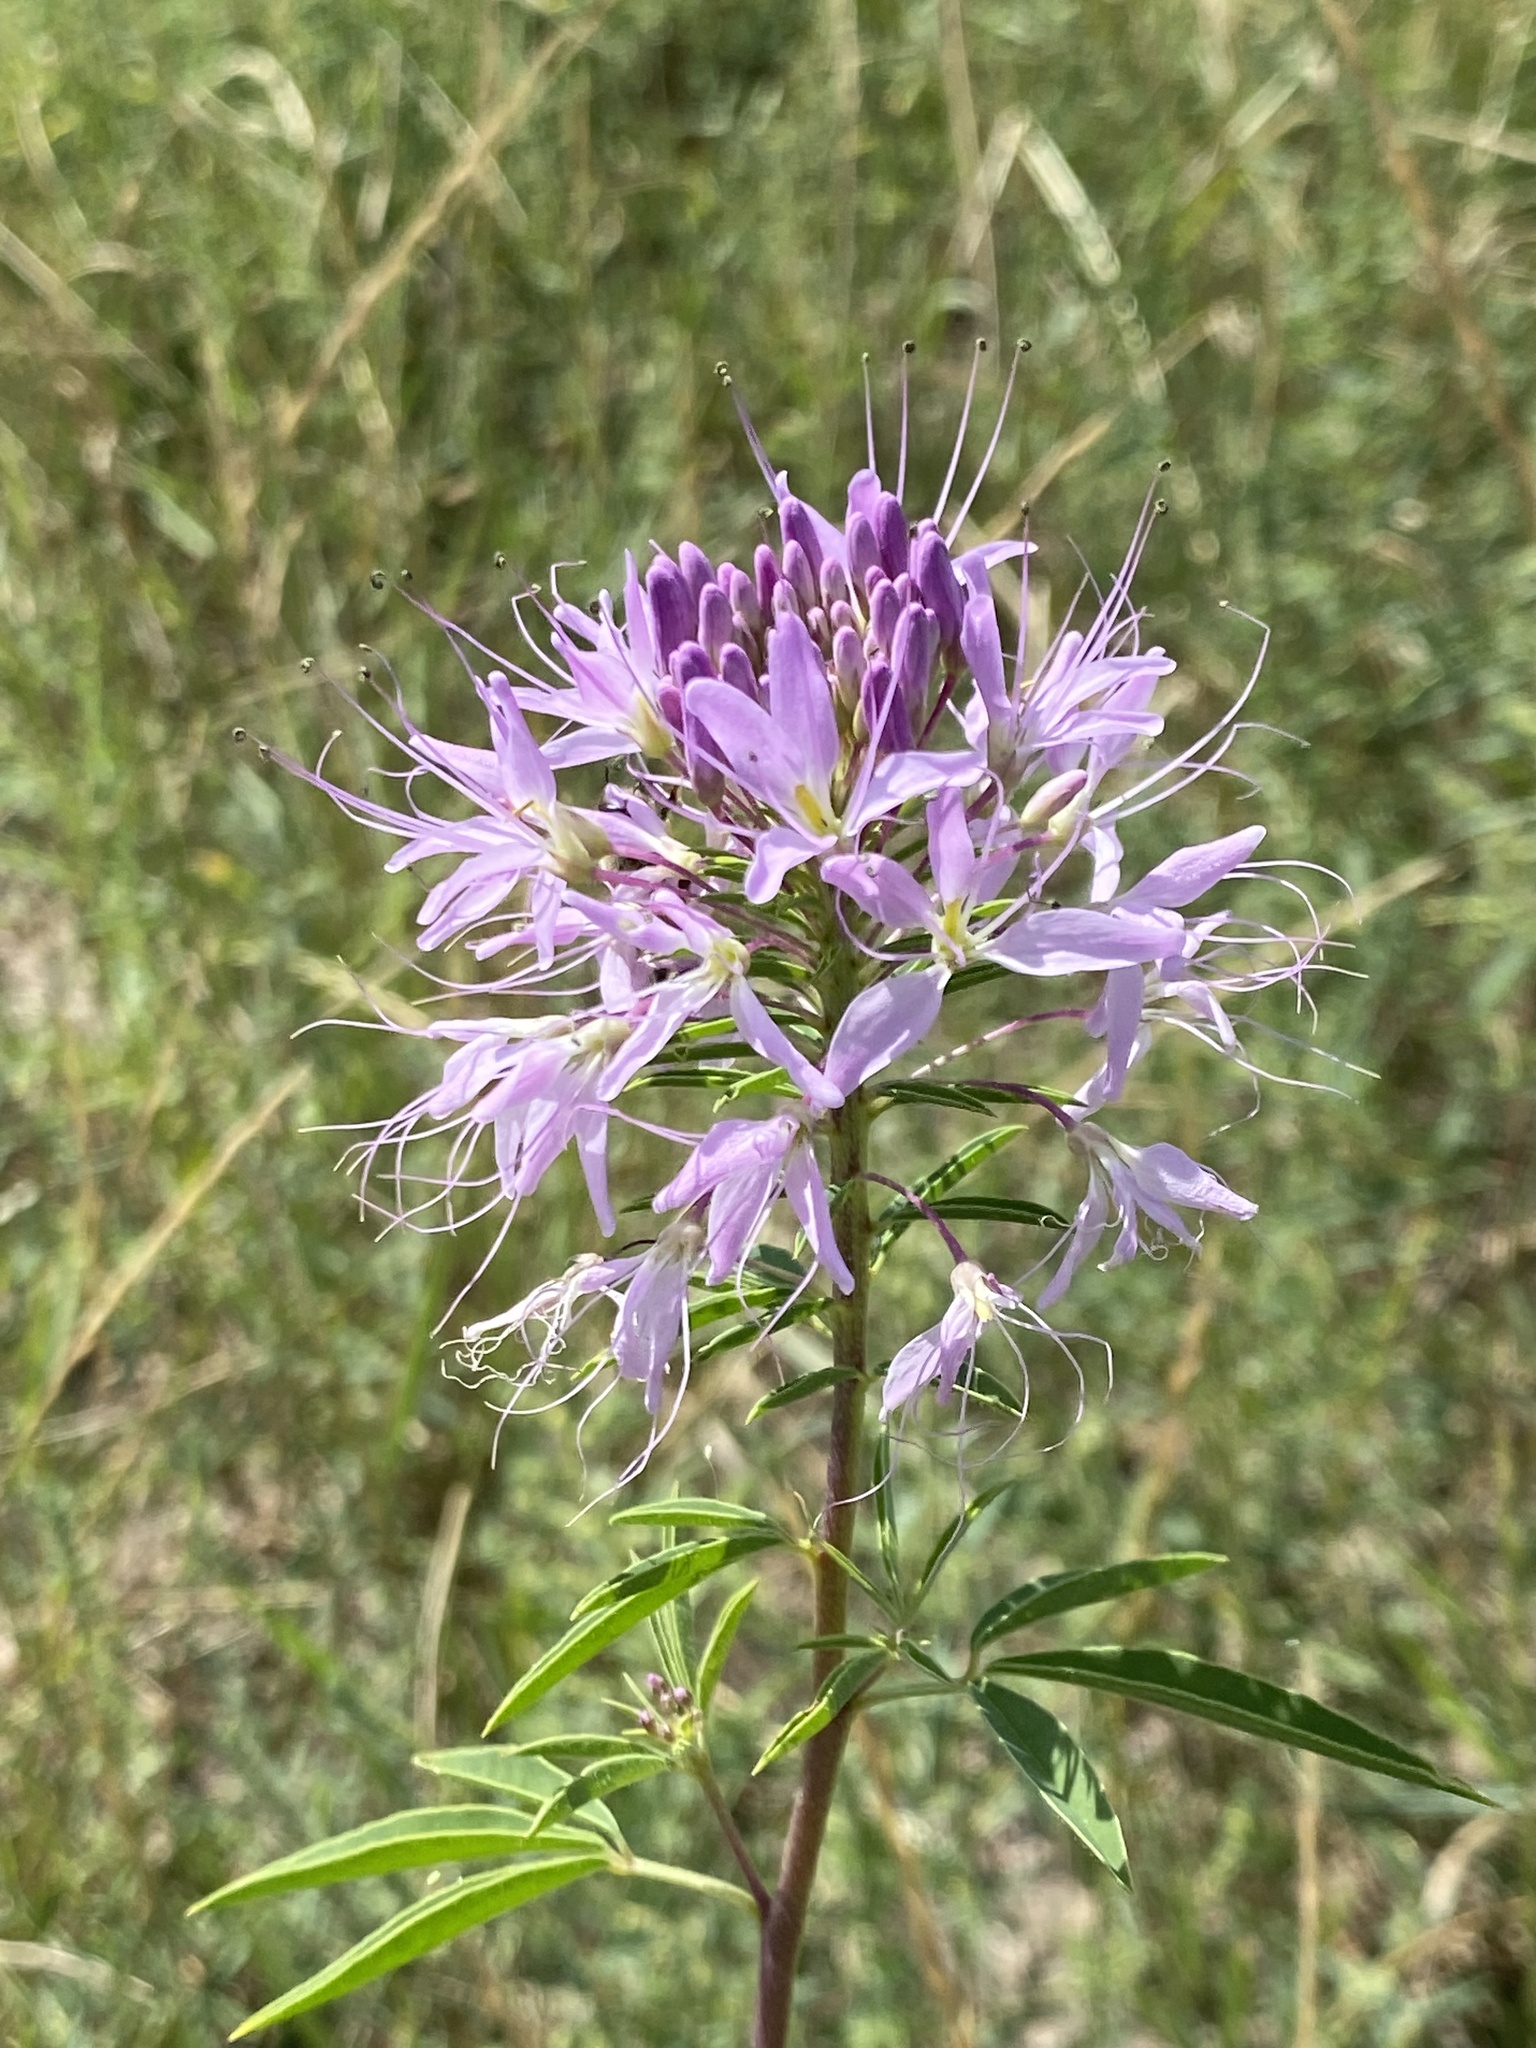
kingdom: Plantae
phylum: Tracheophyta
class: Magnoliopsida
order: Brassicales
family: Cleomaceae
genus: Cleomella
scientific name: Cleomella serrulata
